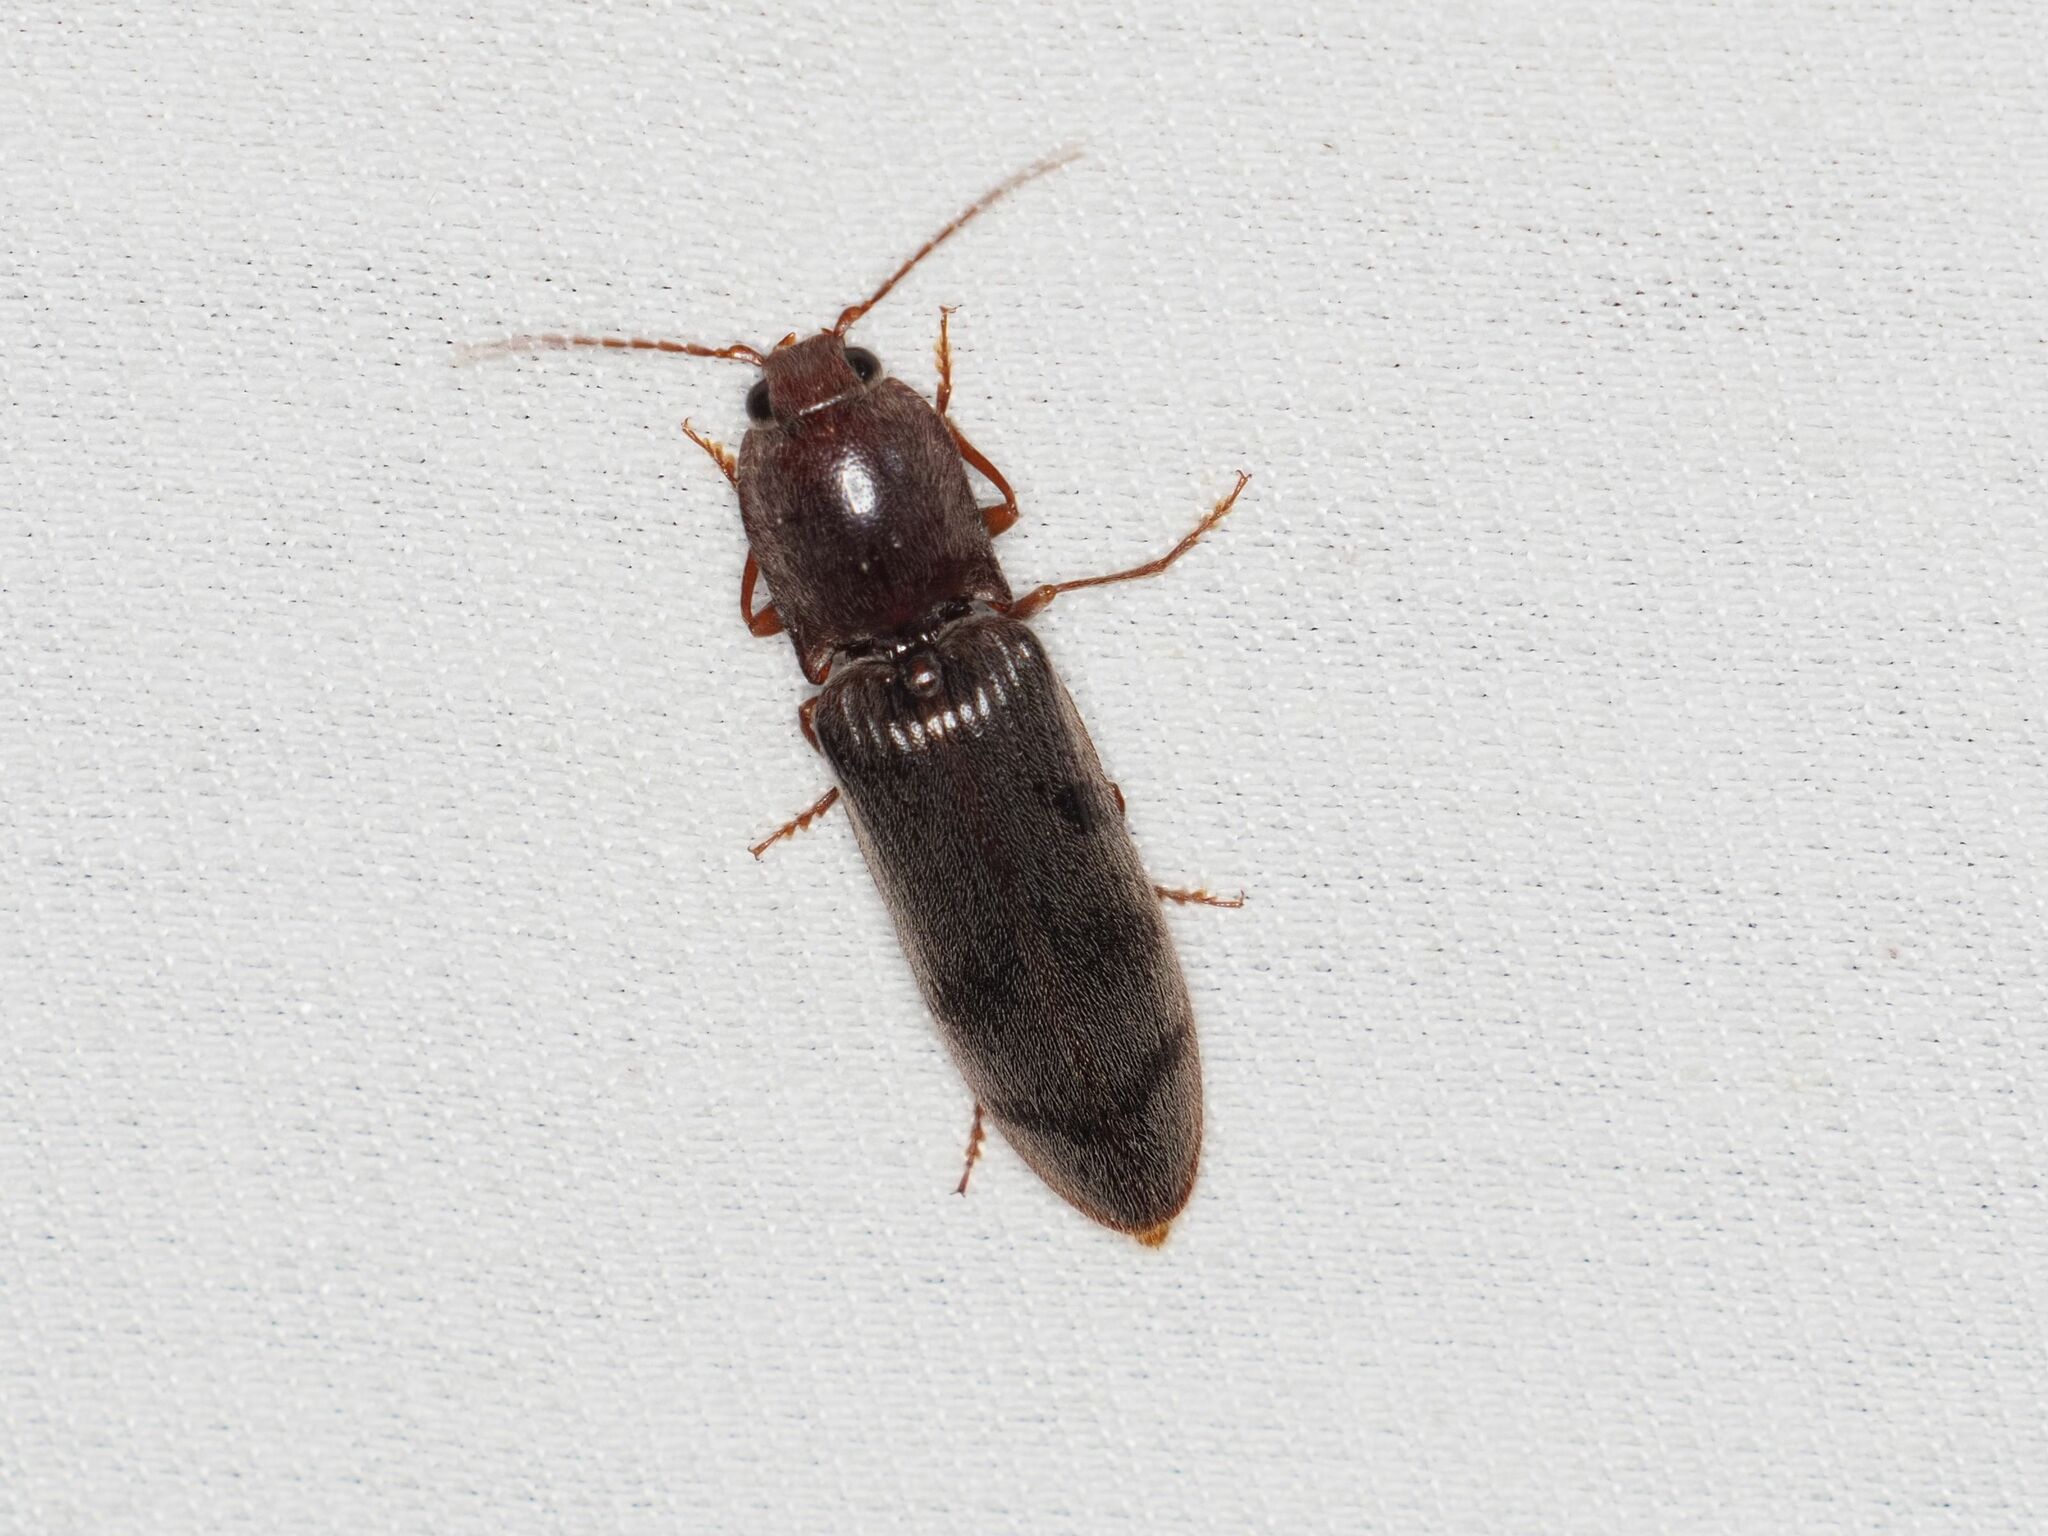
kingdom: Animalia
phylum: Arthropoda
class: Insecta
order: Coleoptera
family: Elateridae
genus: Stenagostus
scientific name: Stenagostus rhombeus
